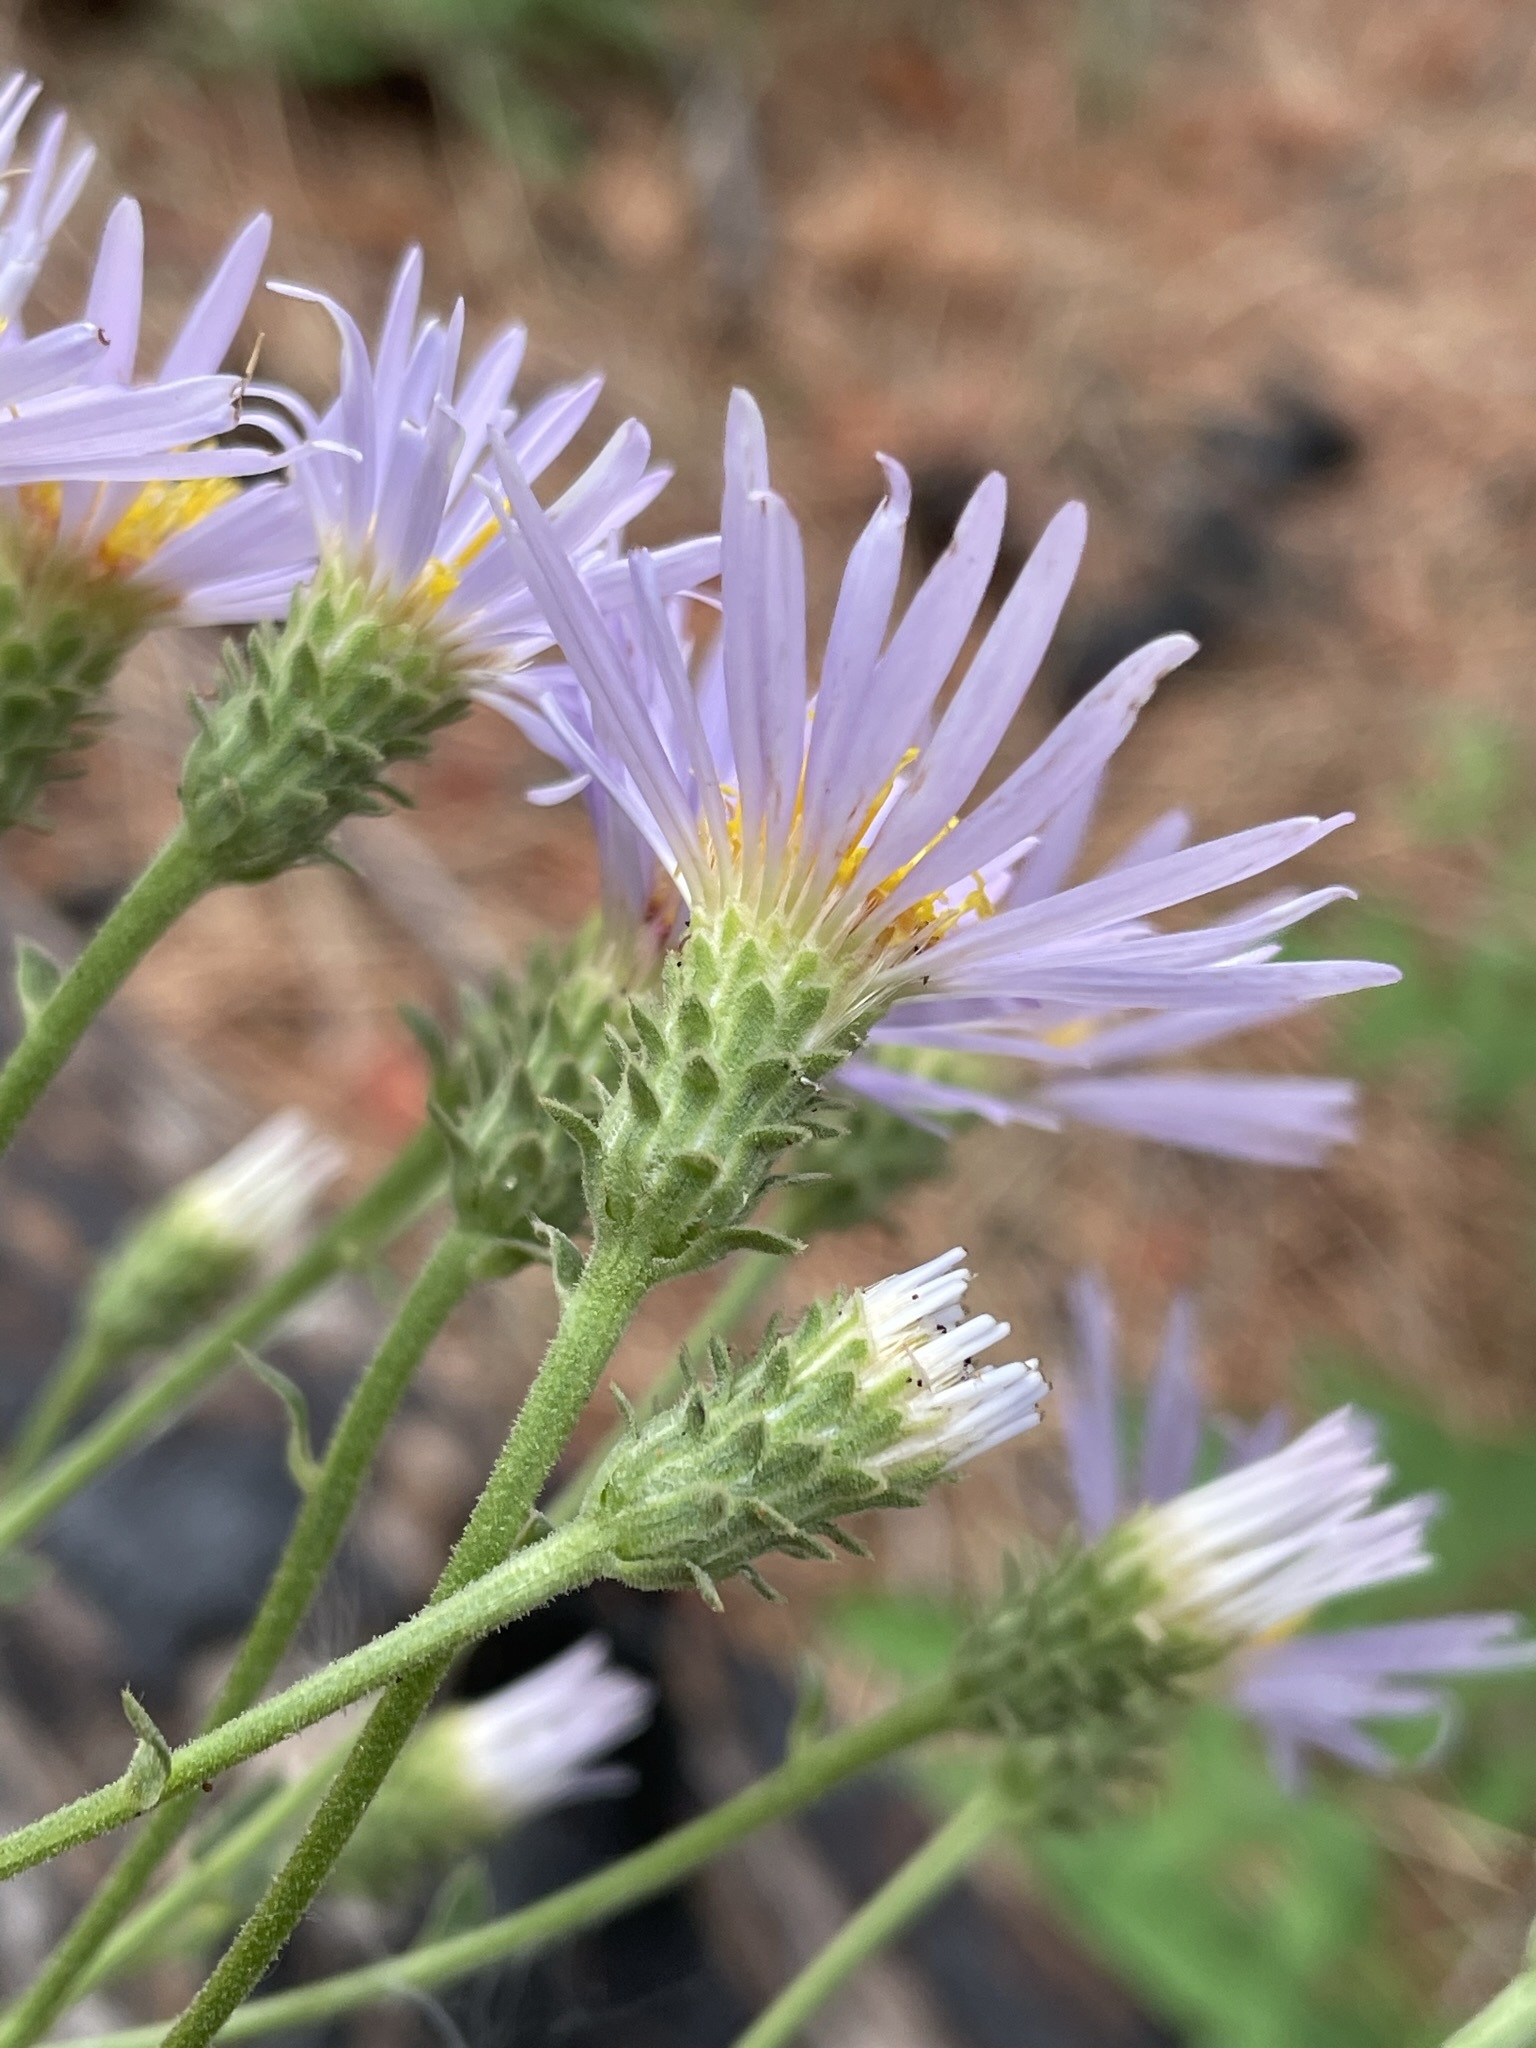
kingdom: Plantae
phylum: Tracheophyta
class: Magnoliopsida
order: Asterales
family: Asteraceae
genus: Eurybia
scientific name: Eurybia conspicua
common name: Showy aster
